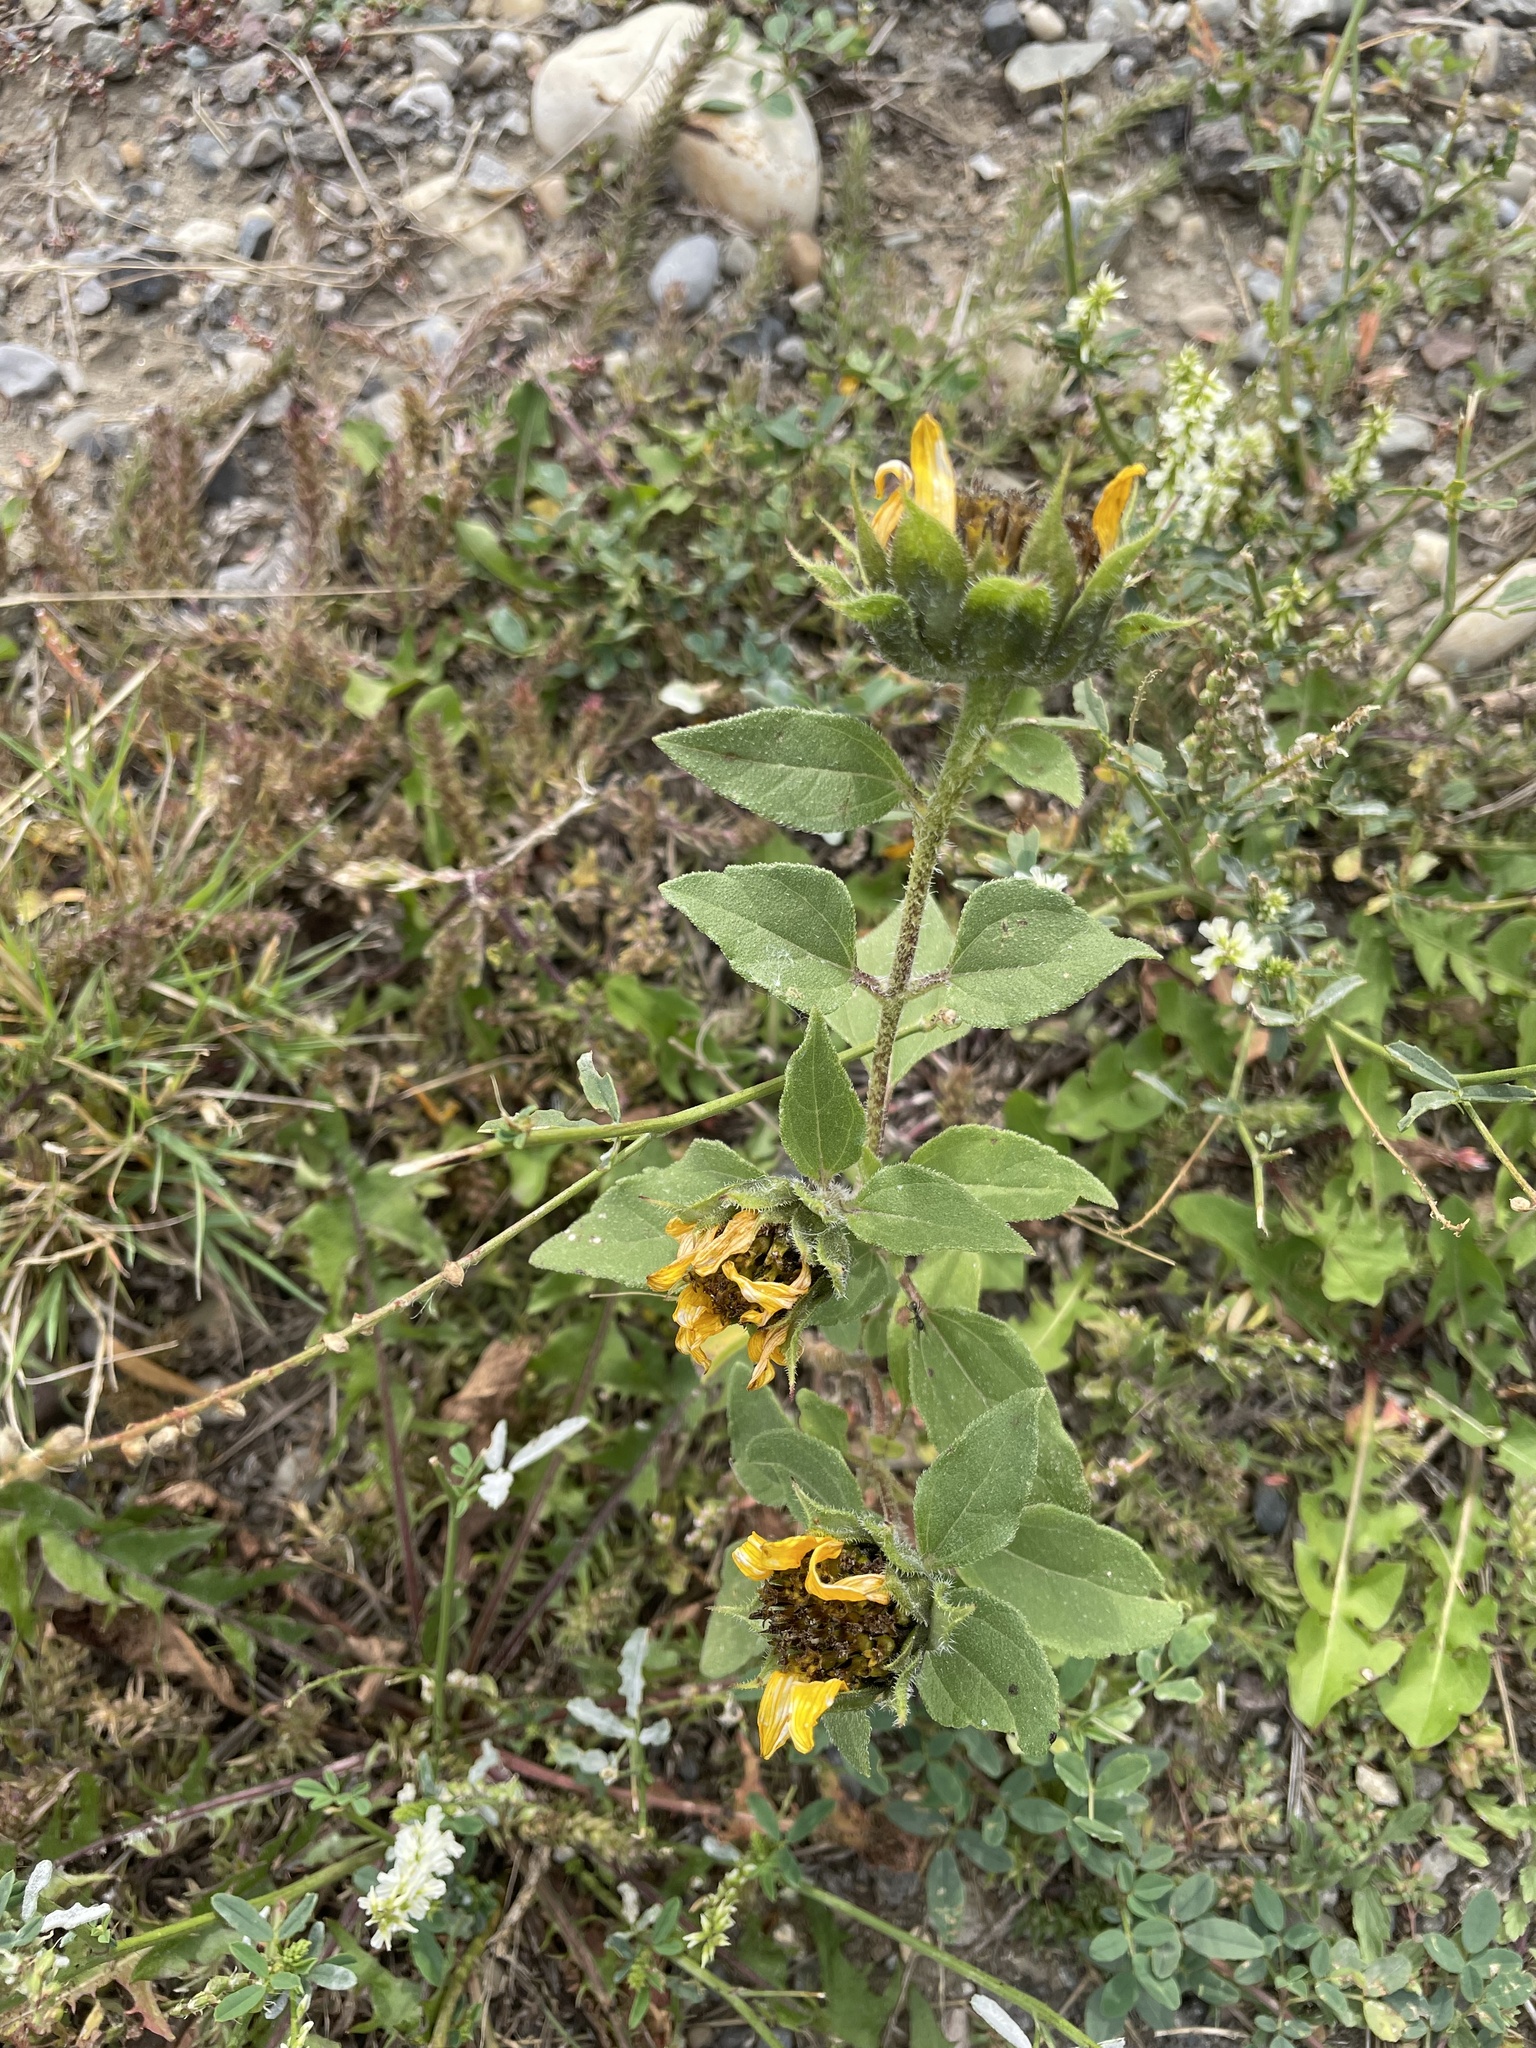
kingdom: Plantae
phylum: Tracheophyta
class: Magnoliopsida
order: Asterales
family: Asteraceae
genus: Helianthus
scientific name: Helianthus annuus
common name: Sunflower
